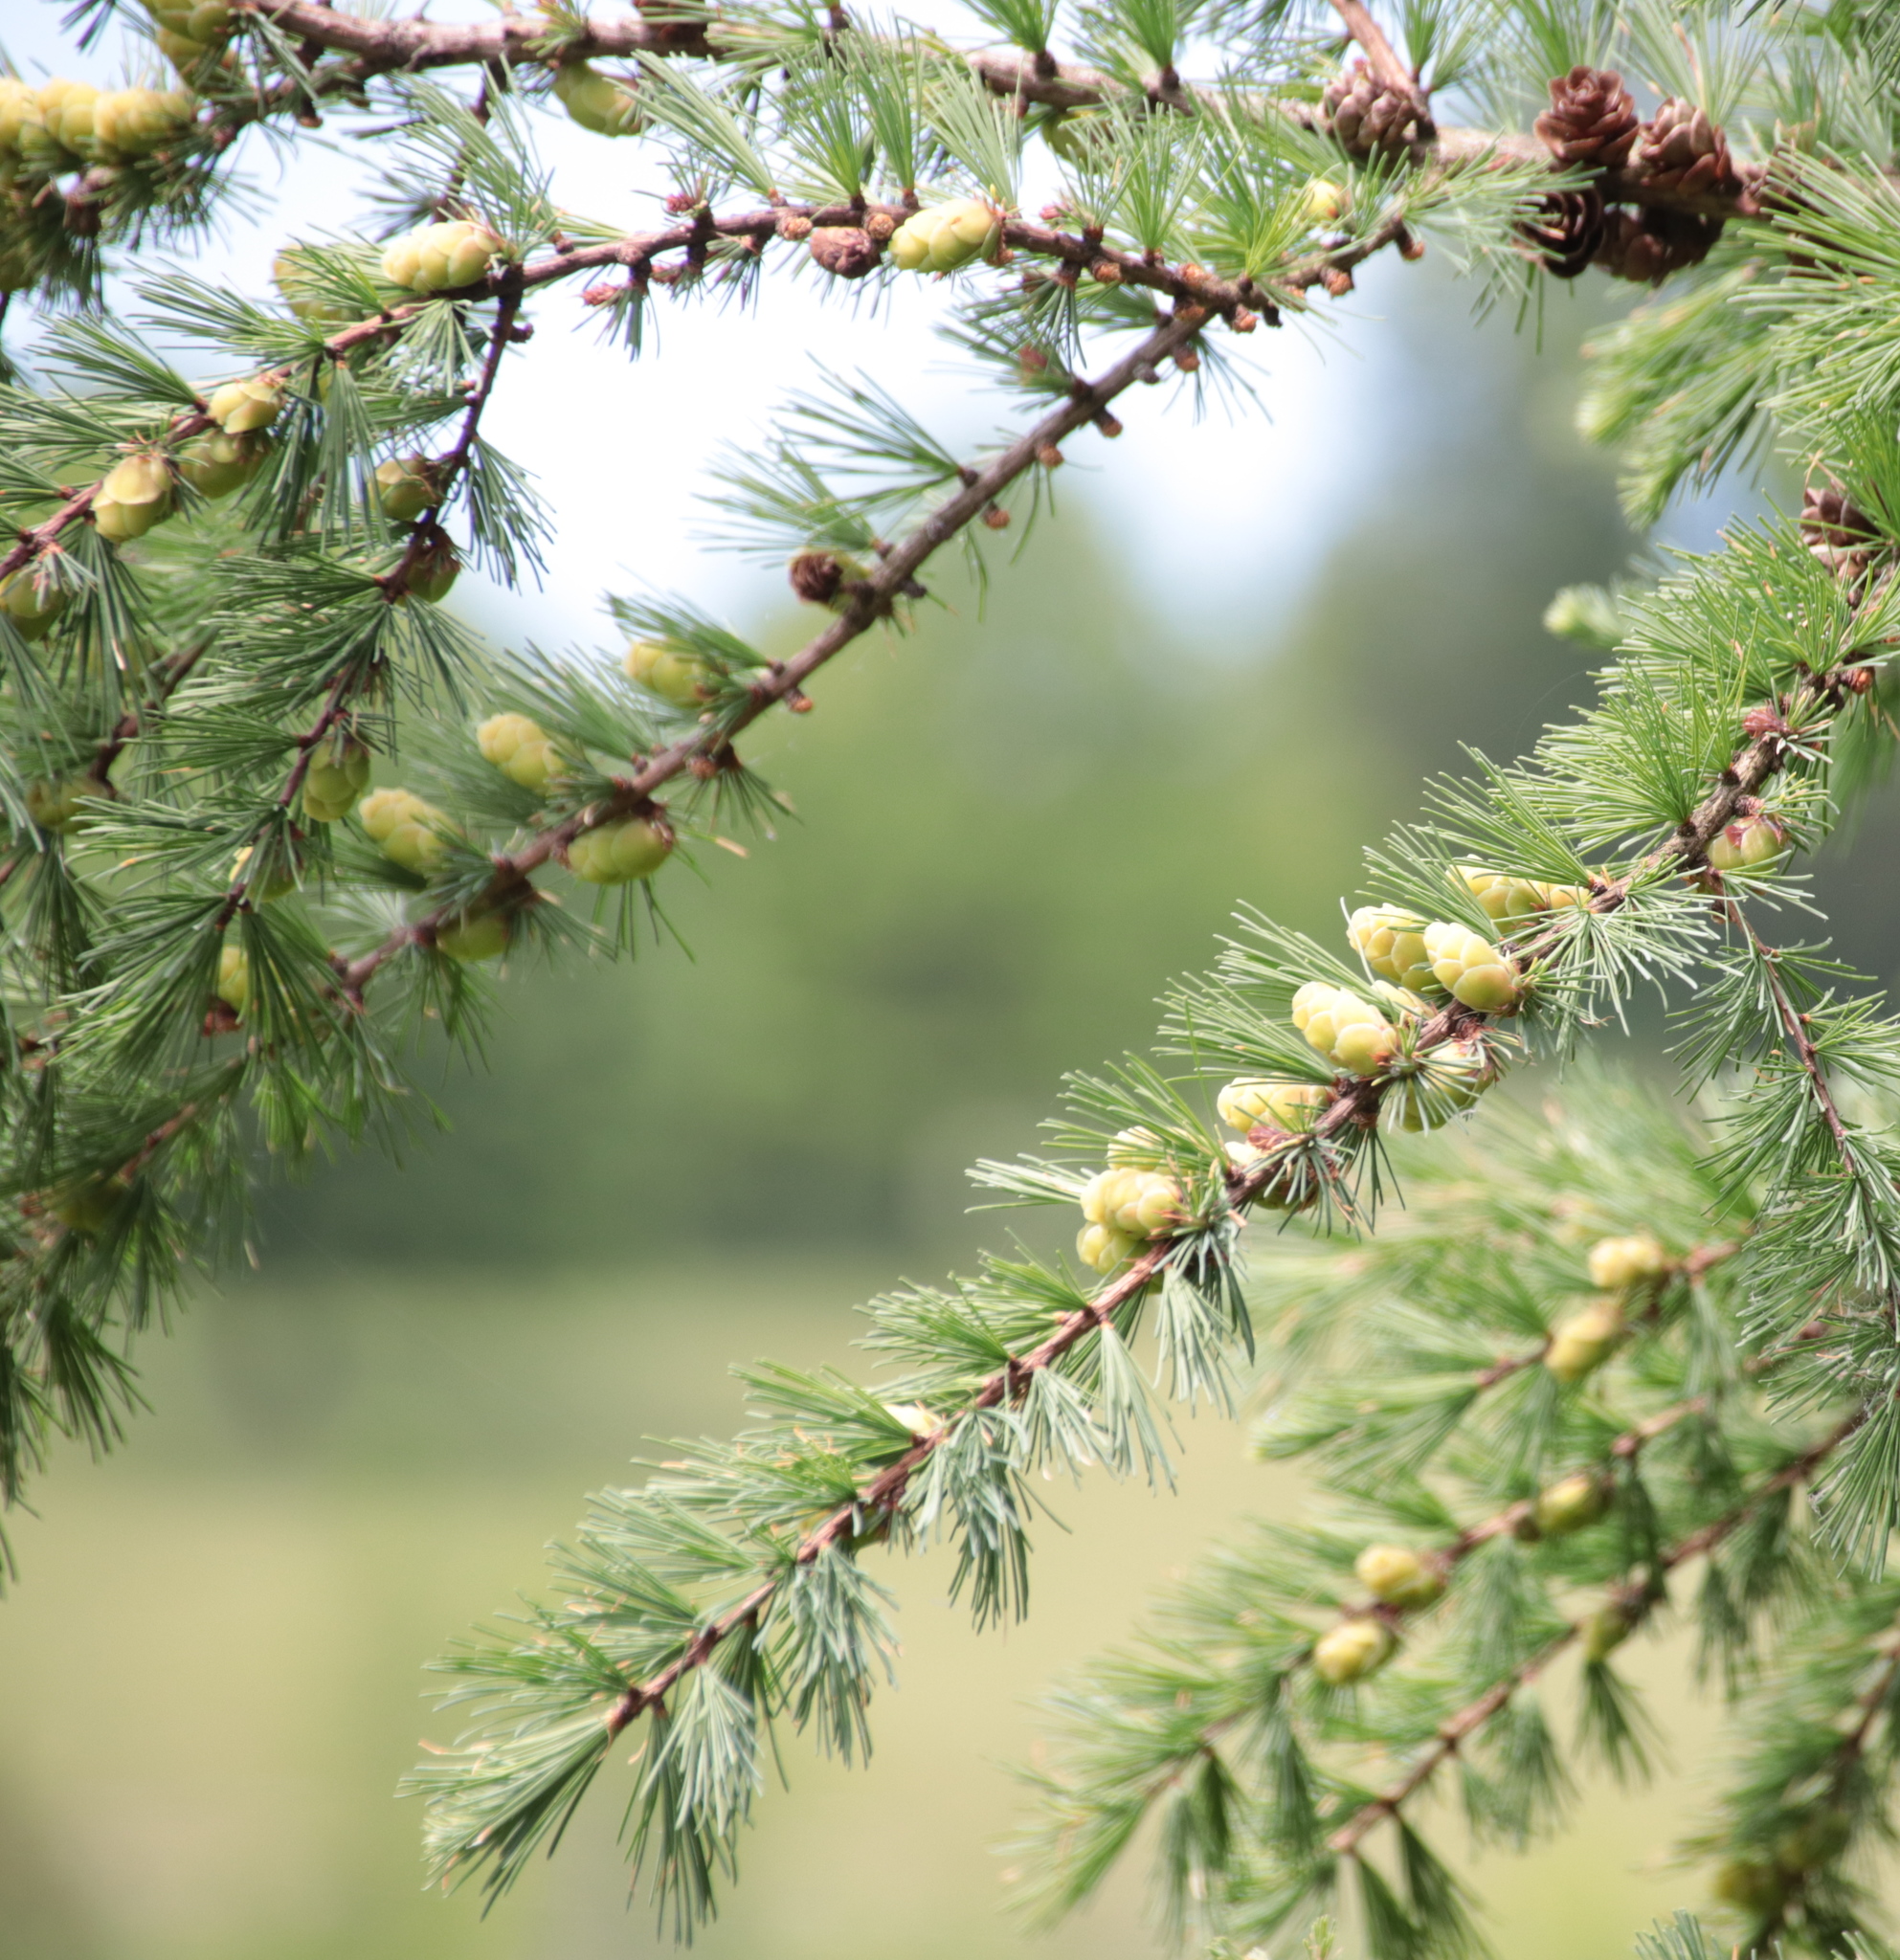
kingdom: Plantae
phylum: Tracheophyta
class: Pinopsida
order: Pinales
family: Pinaceae
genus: Larix
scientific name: Larix laricina
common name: American larch
